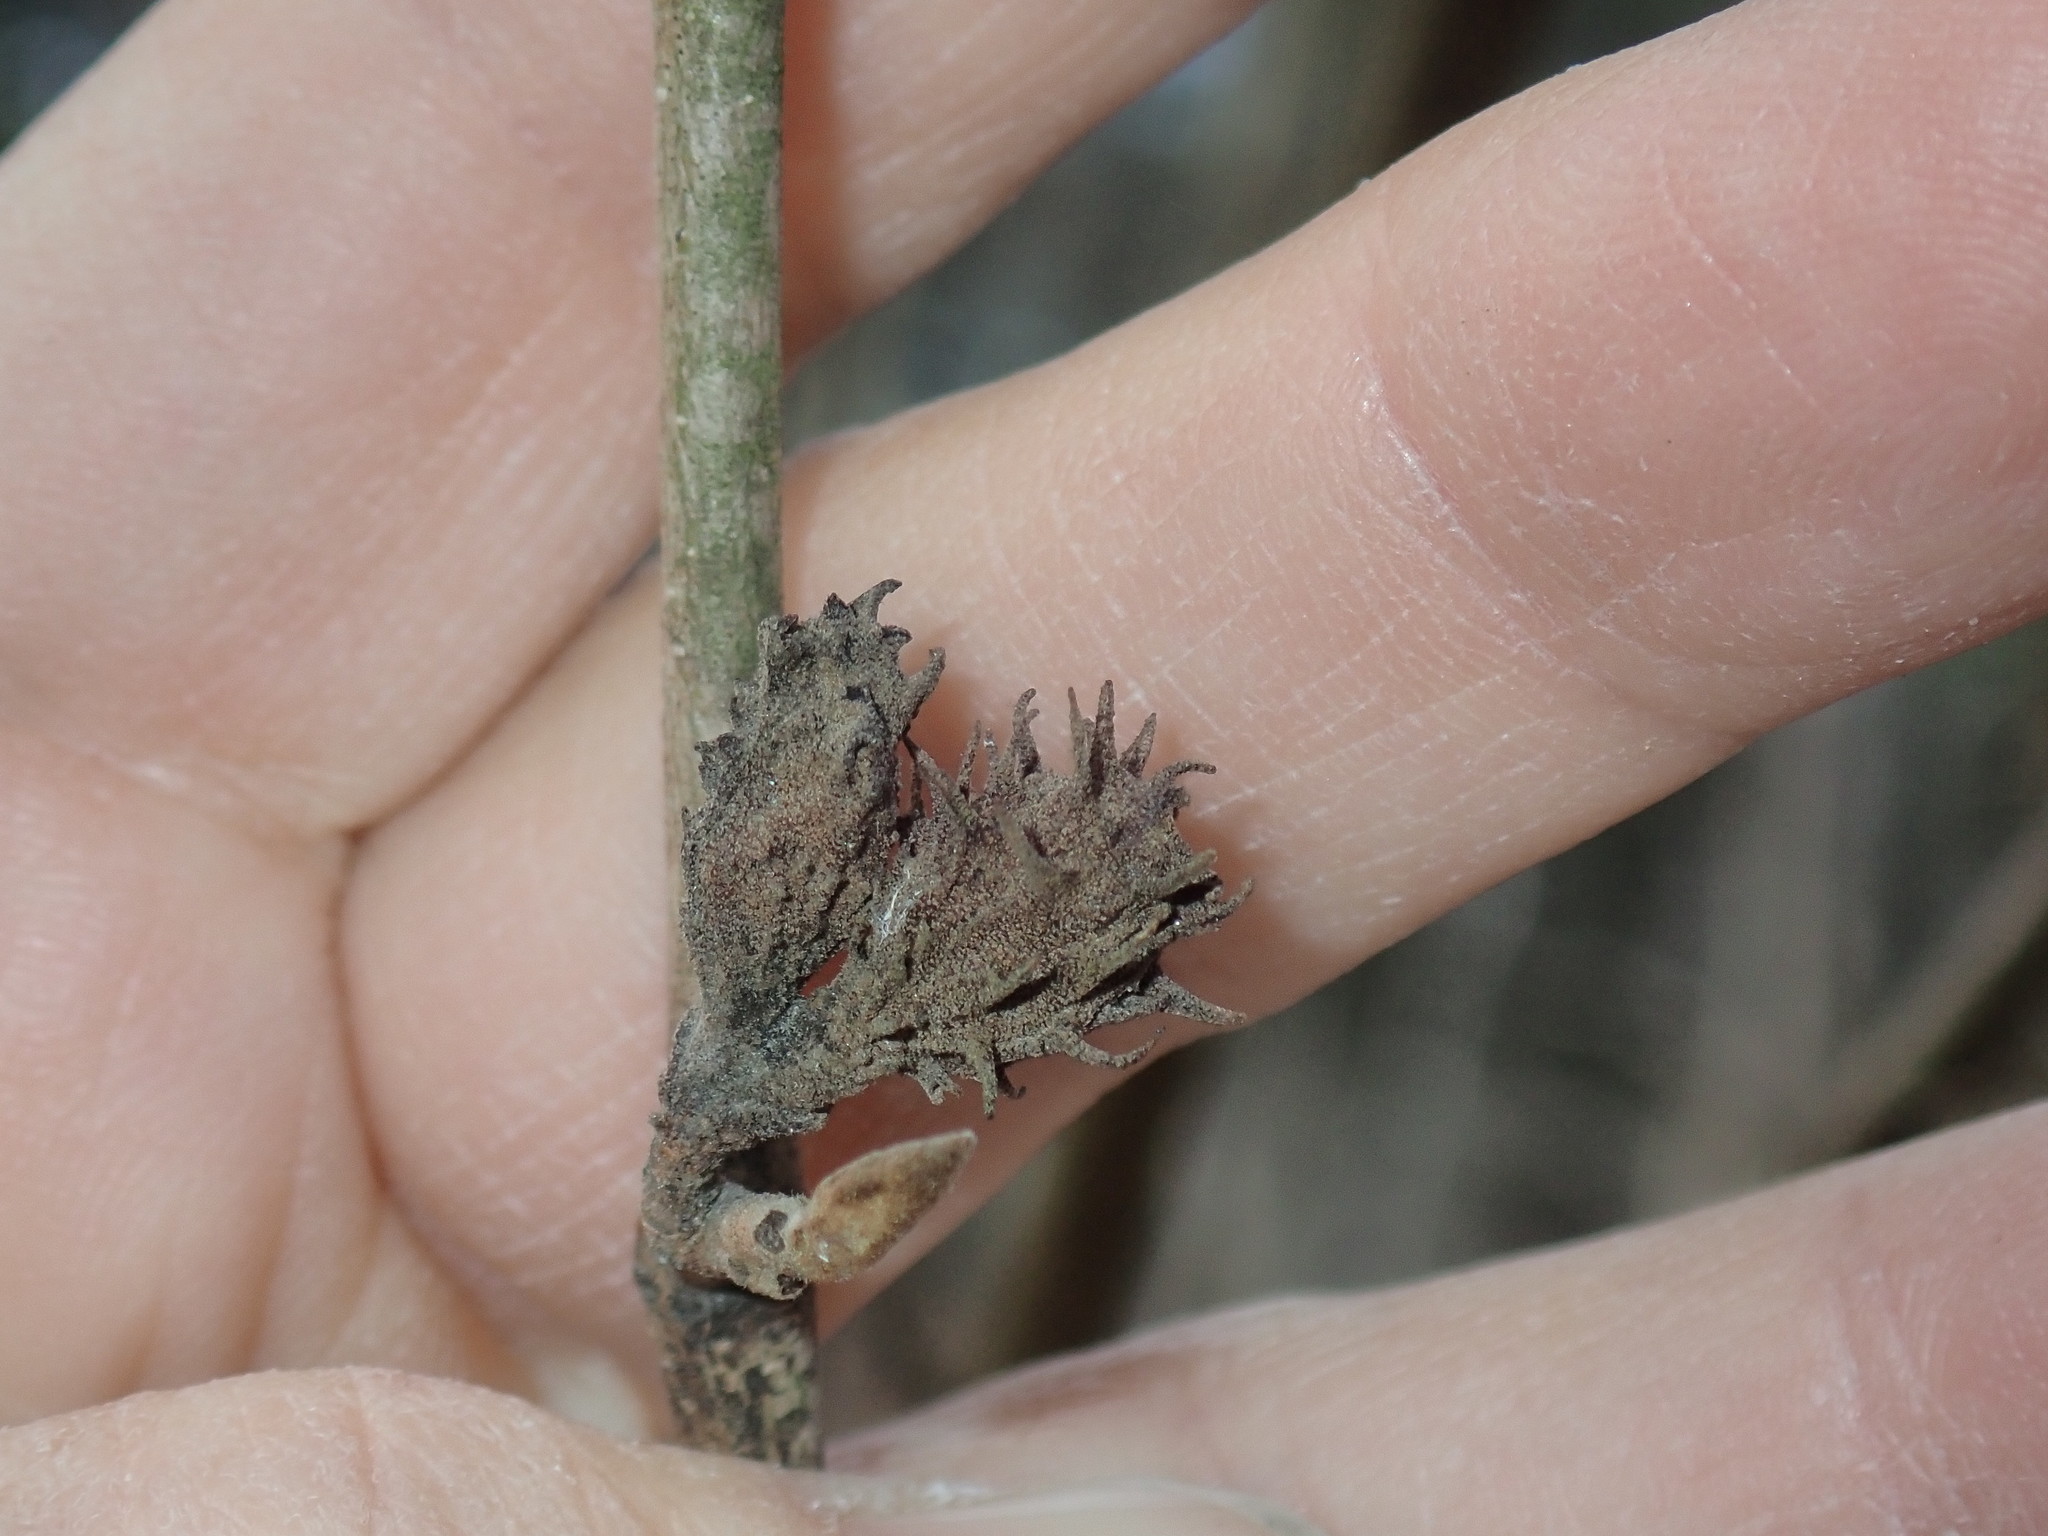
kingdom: Animalia
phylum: Arthropoda
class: Insecta
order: Hemiptera
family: Aphididae
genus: Hamamelistes
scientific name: Hamamelistes spinosus
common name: Witch hazel gall aphid
